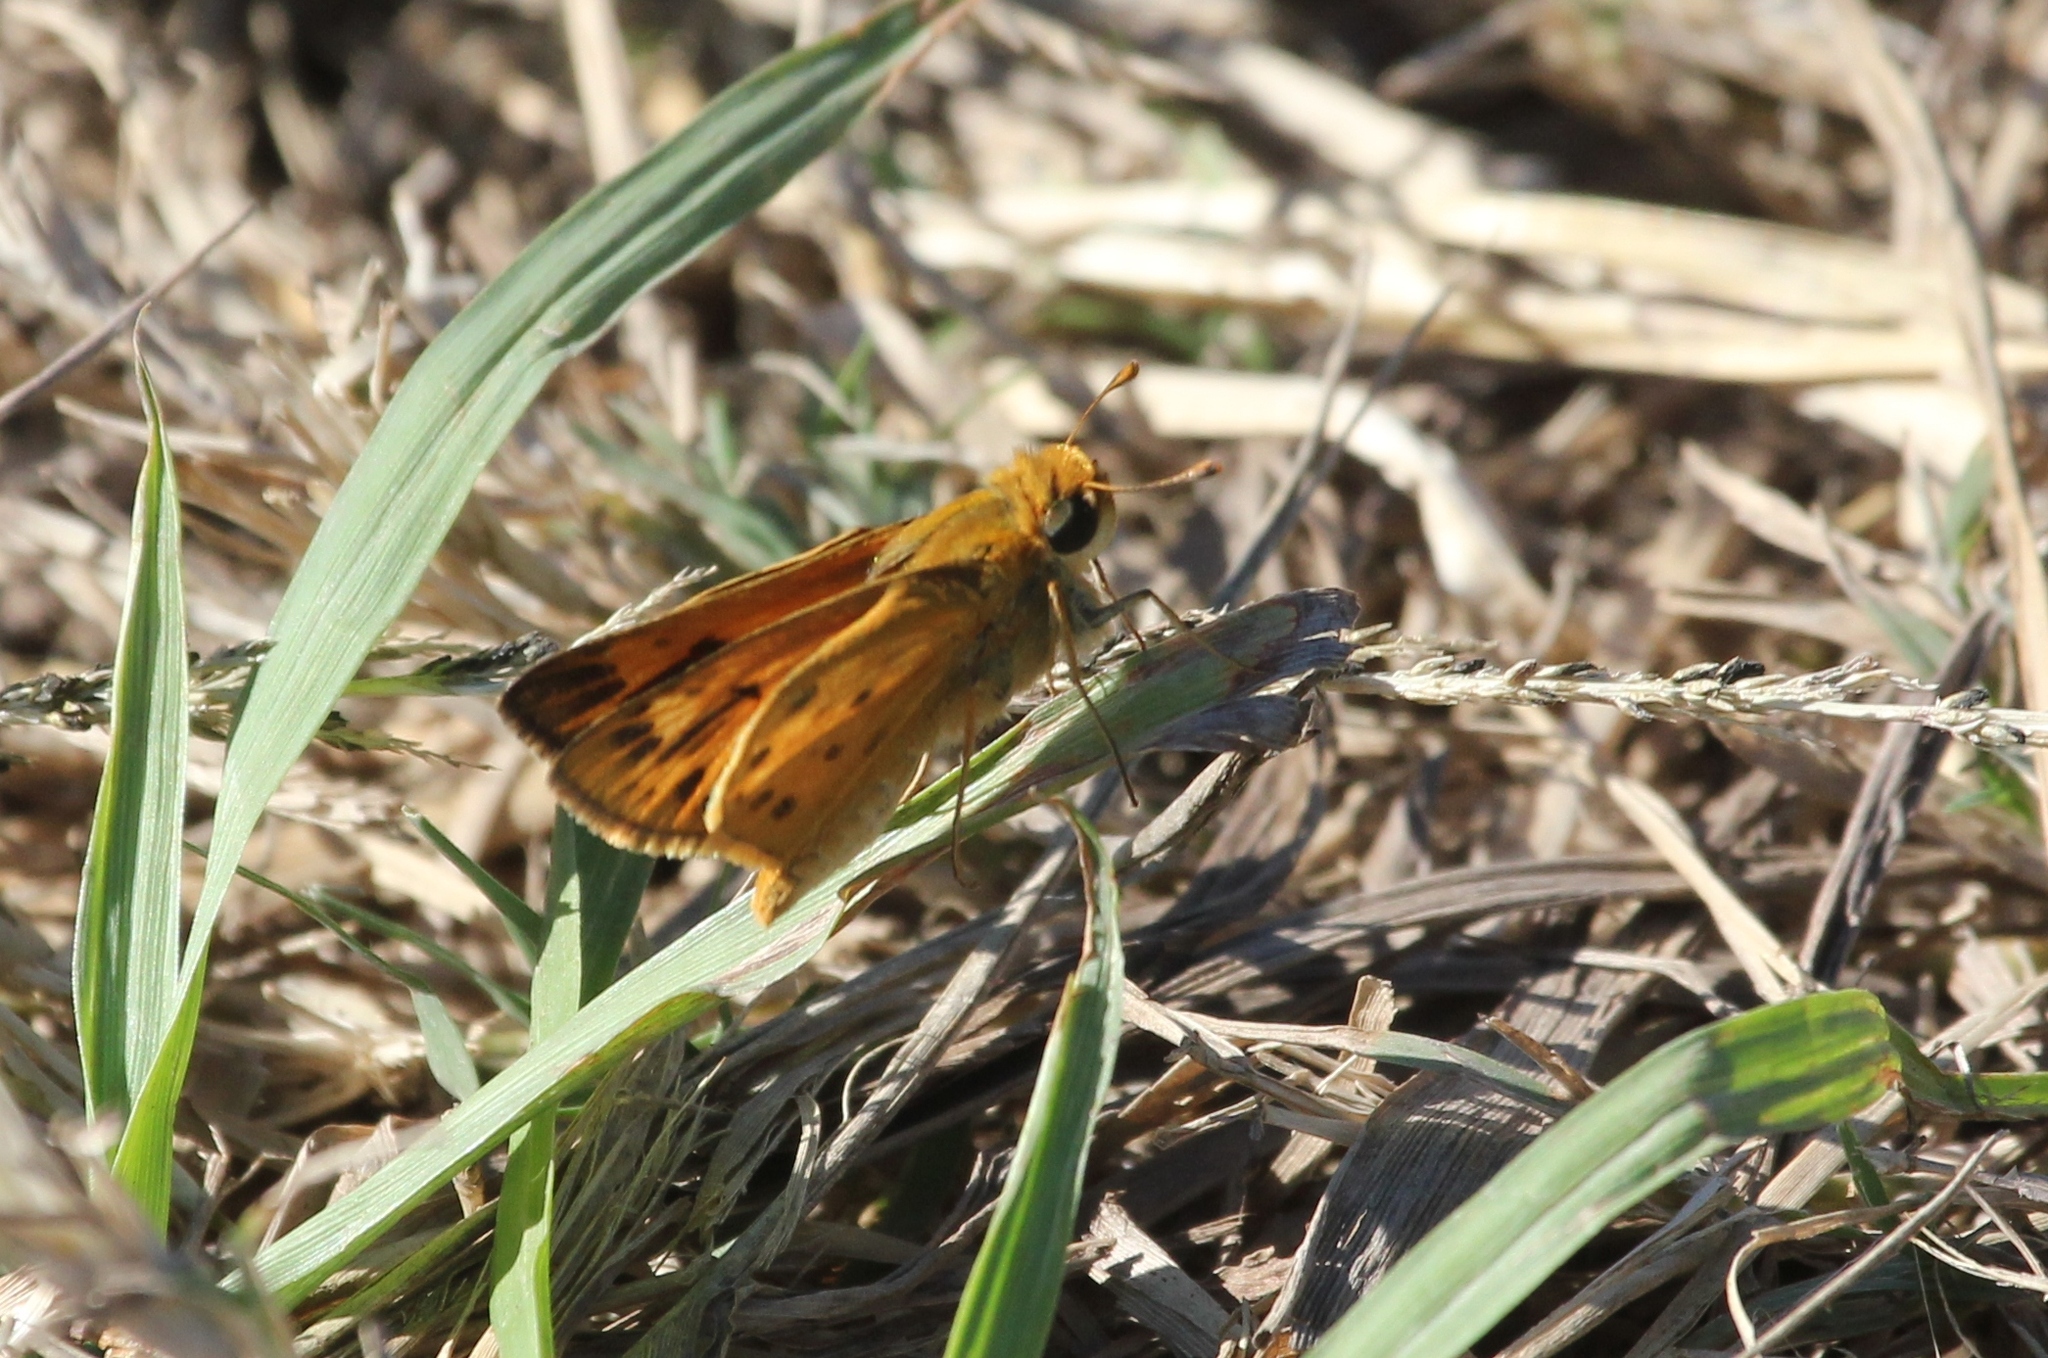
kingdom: Animalia
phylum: Arthropoda
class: Insecta
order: Lepidoptera
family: Hesperiidae
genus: Hylephila
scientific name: Hylephila phyleus
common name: Fiery skipper
